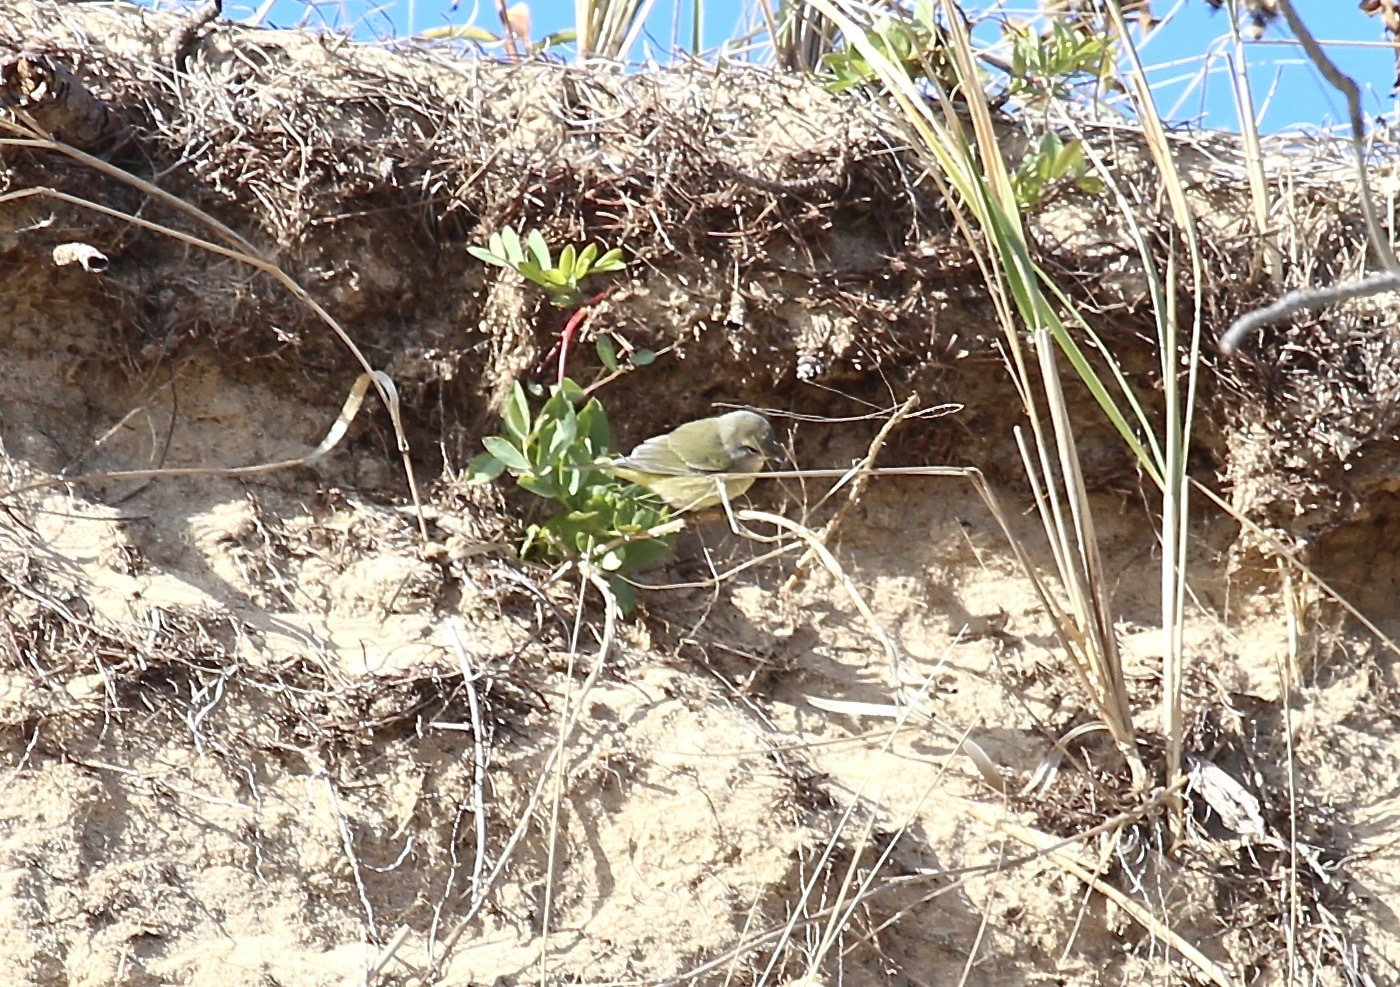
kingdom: Animalia
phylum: Chordata
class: Aves
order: Passeriformes
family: Parulidae
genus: Leiothlypis
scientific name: Leiothlypis celata
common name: Orange-crowned warbler
